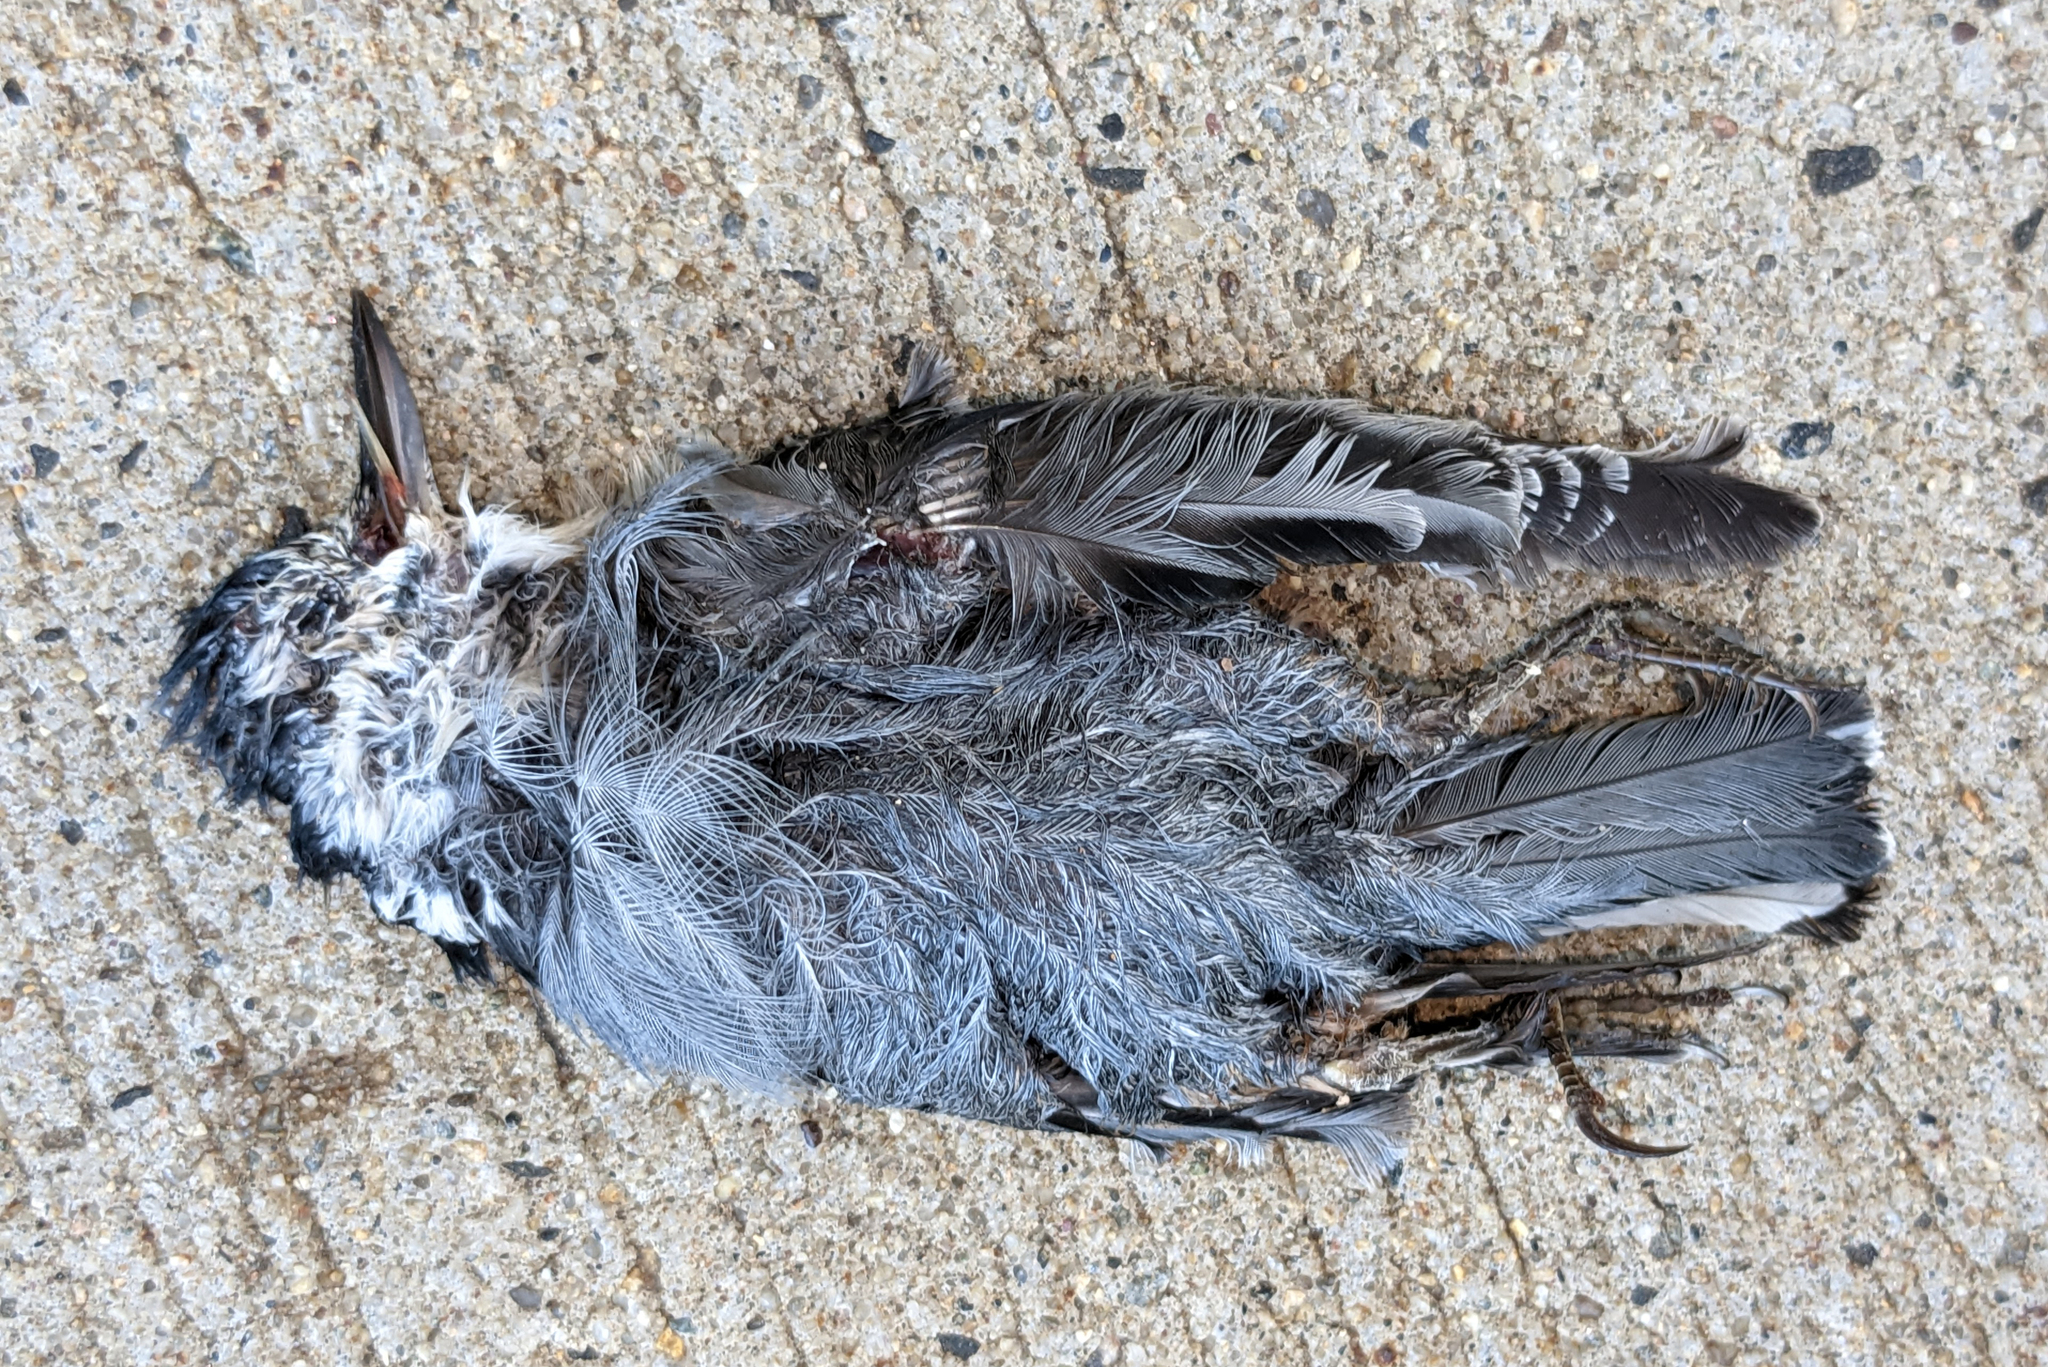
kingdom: Animalia
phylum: Chordata
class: Aves
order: Passeriformes
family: Sittidae
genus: Sitta
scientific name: Sitta carolinensis
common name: White-breasted nuthatch
